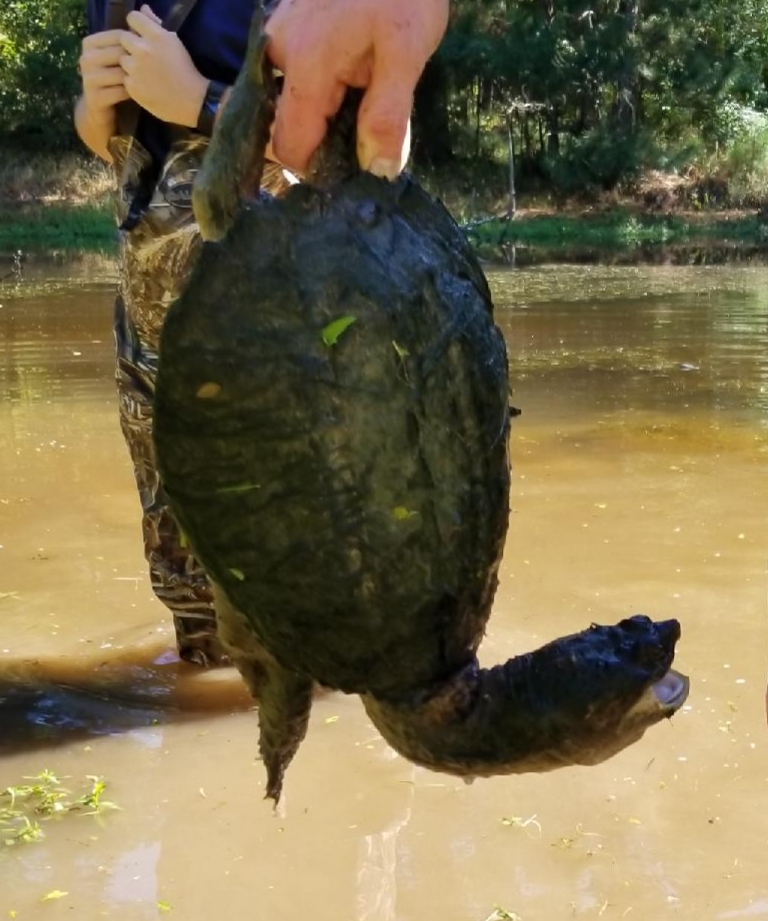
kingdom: Animalia
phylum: Chordata
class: Testudines
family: Chelydridae
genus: Chelydra
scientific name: Chelydra serpentina
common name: Common snapping turtle
